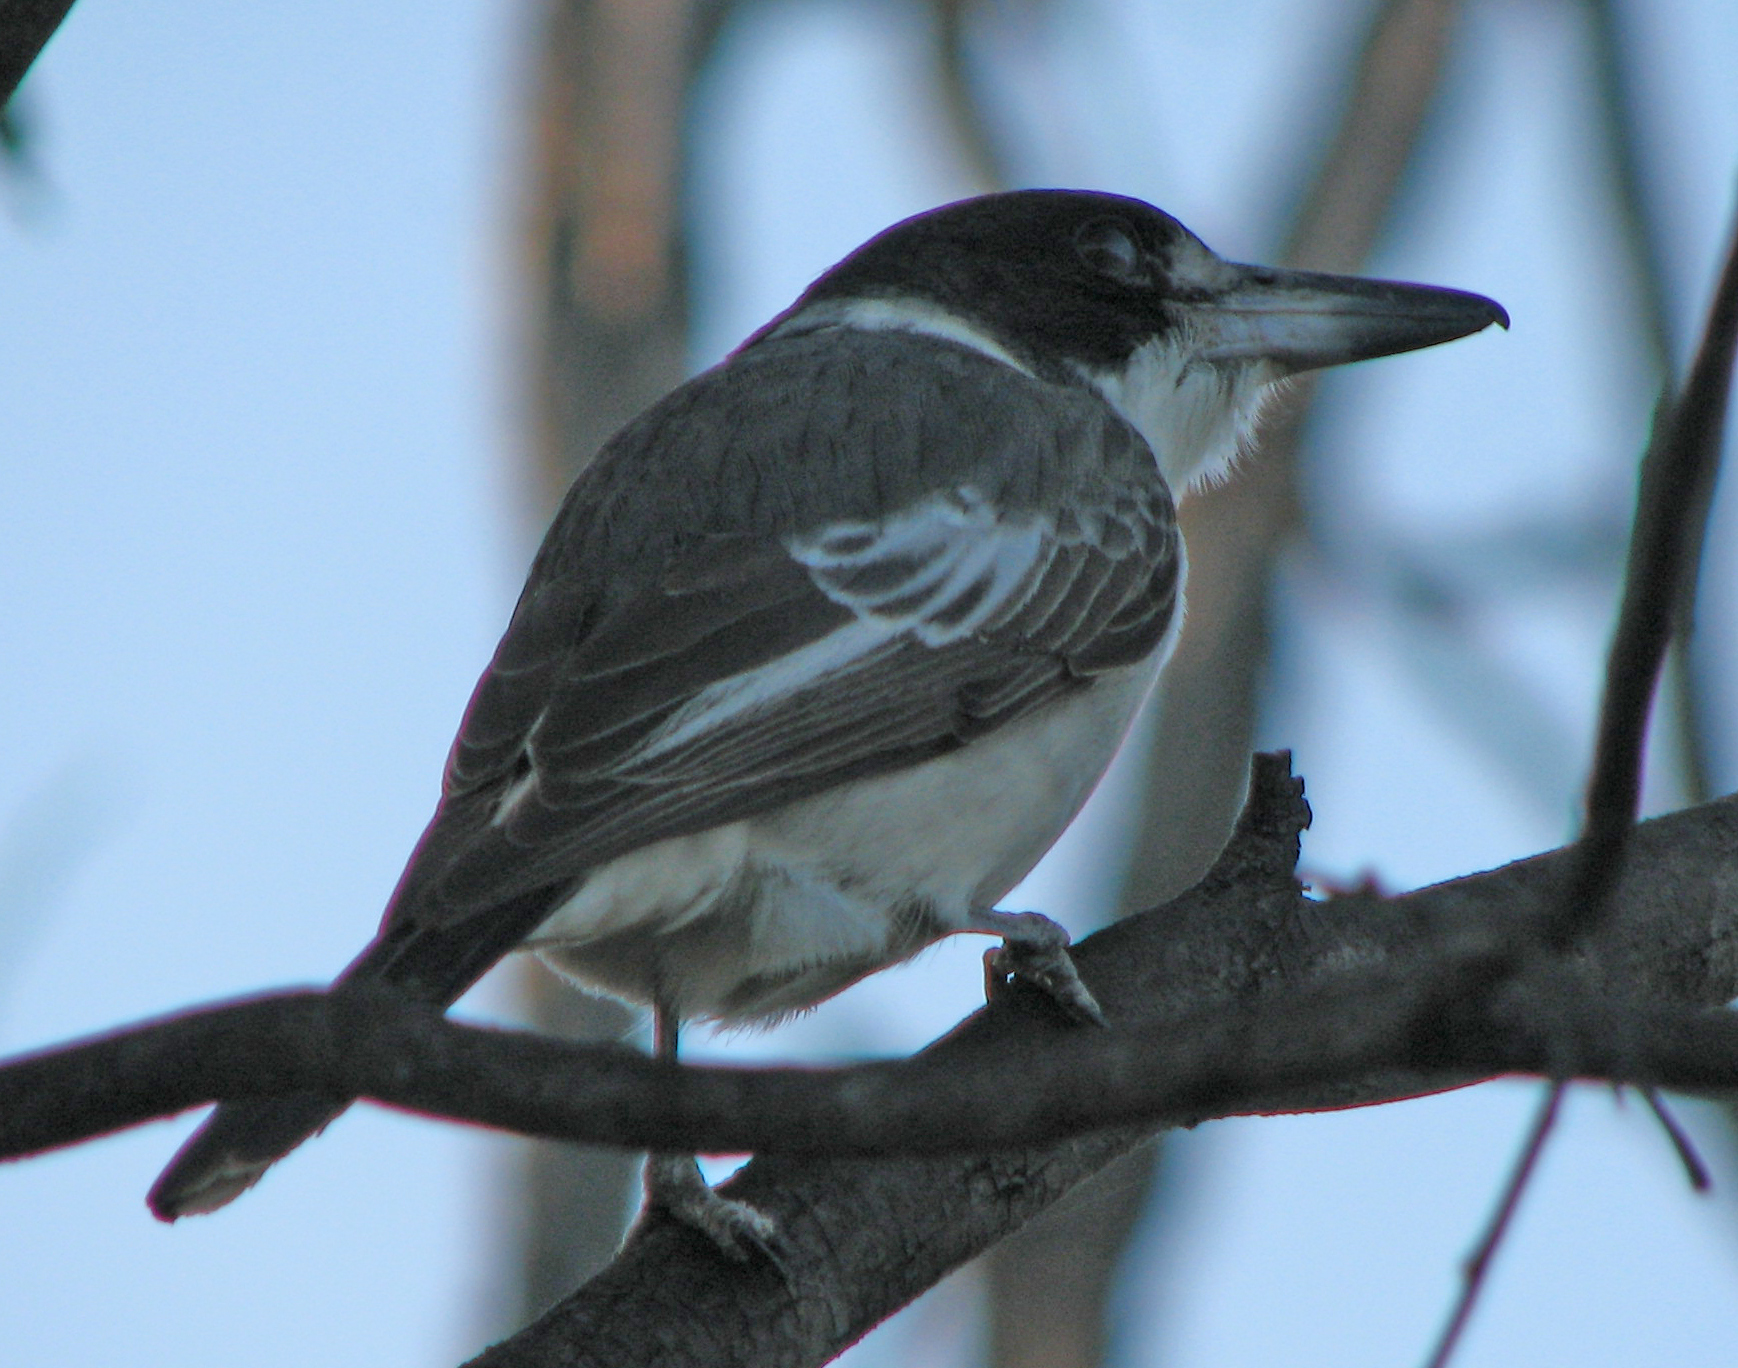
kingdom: Animalia
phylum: Chordata
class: Aves
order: Passeriformes
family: Cracticidae
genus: Cracticus
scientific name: Cracticus torquatus
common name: Grey butcherbird
